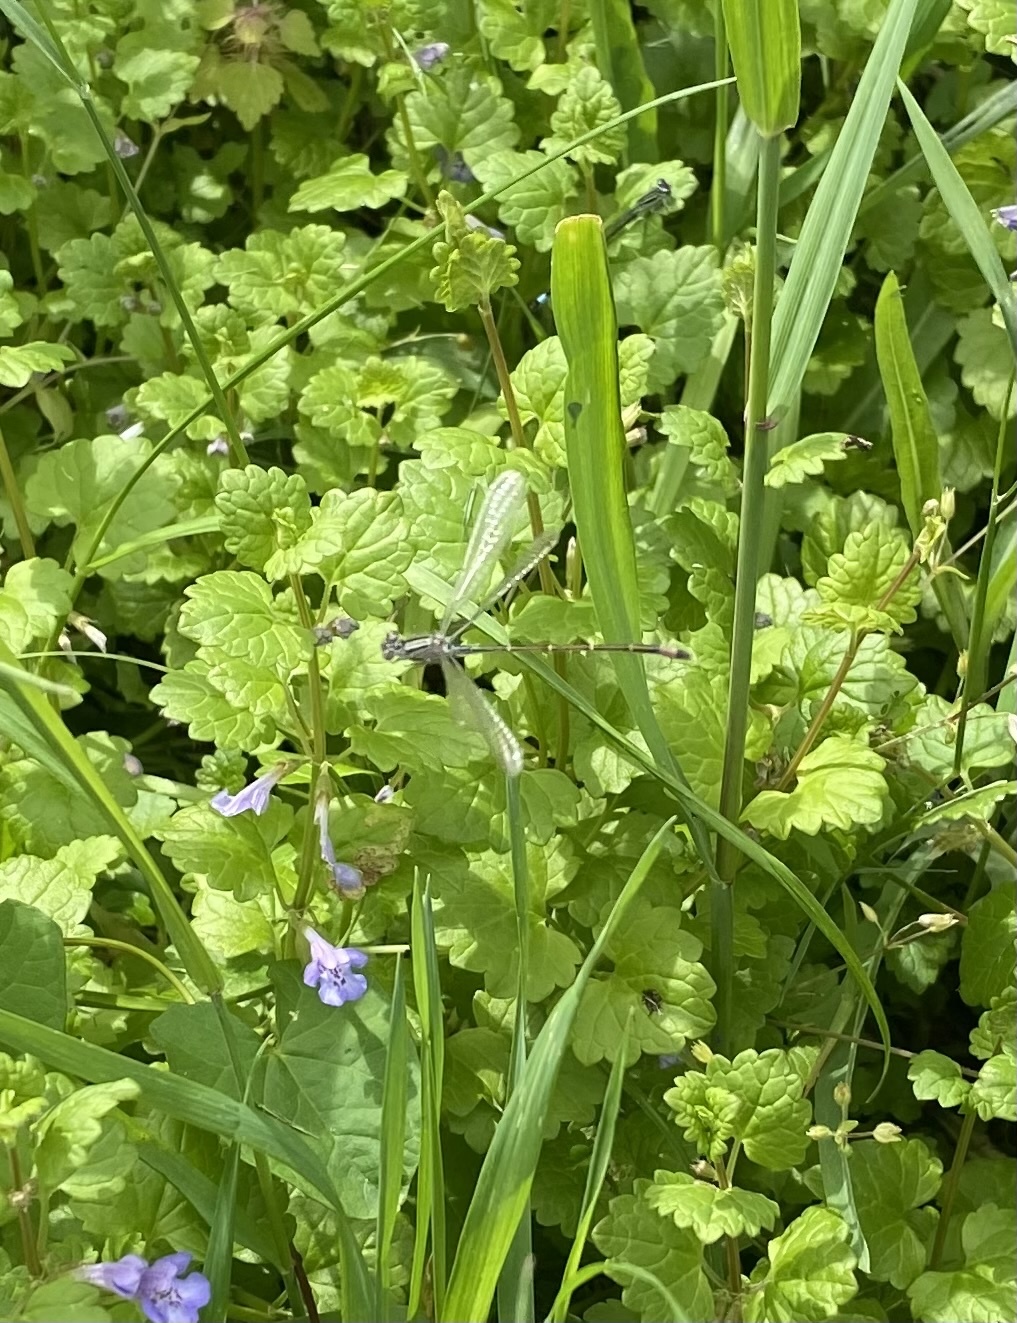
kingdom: Animalia
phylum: Arthropoda
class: Insecta
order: Odonata
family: Coenagrionidae
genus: Ischnura
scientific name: Ischnura elegans
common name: Blue-tailed damselfly
